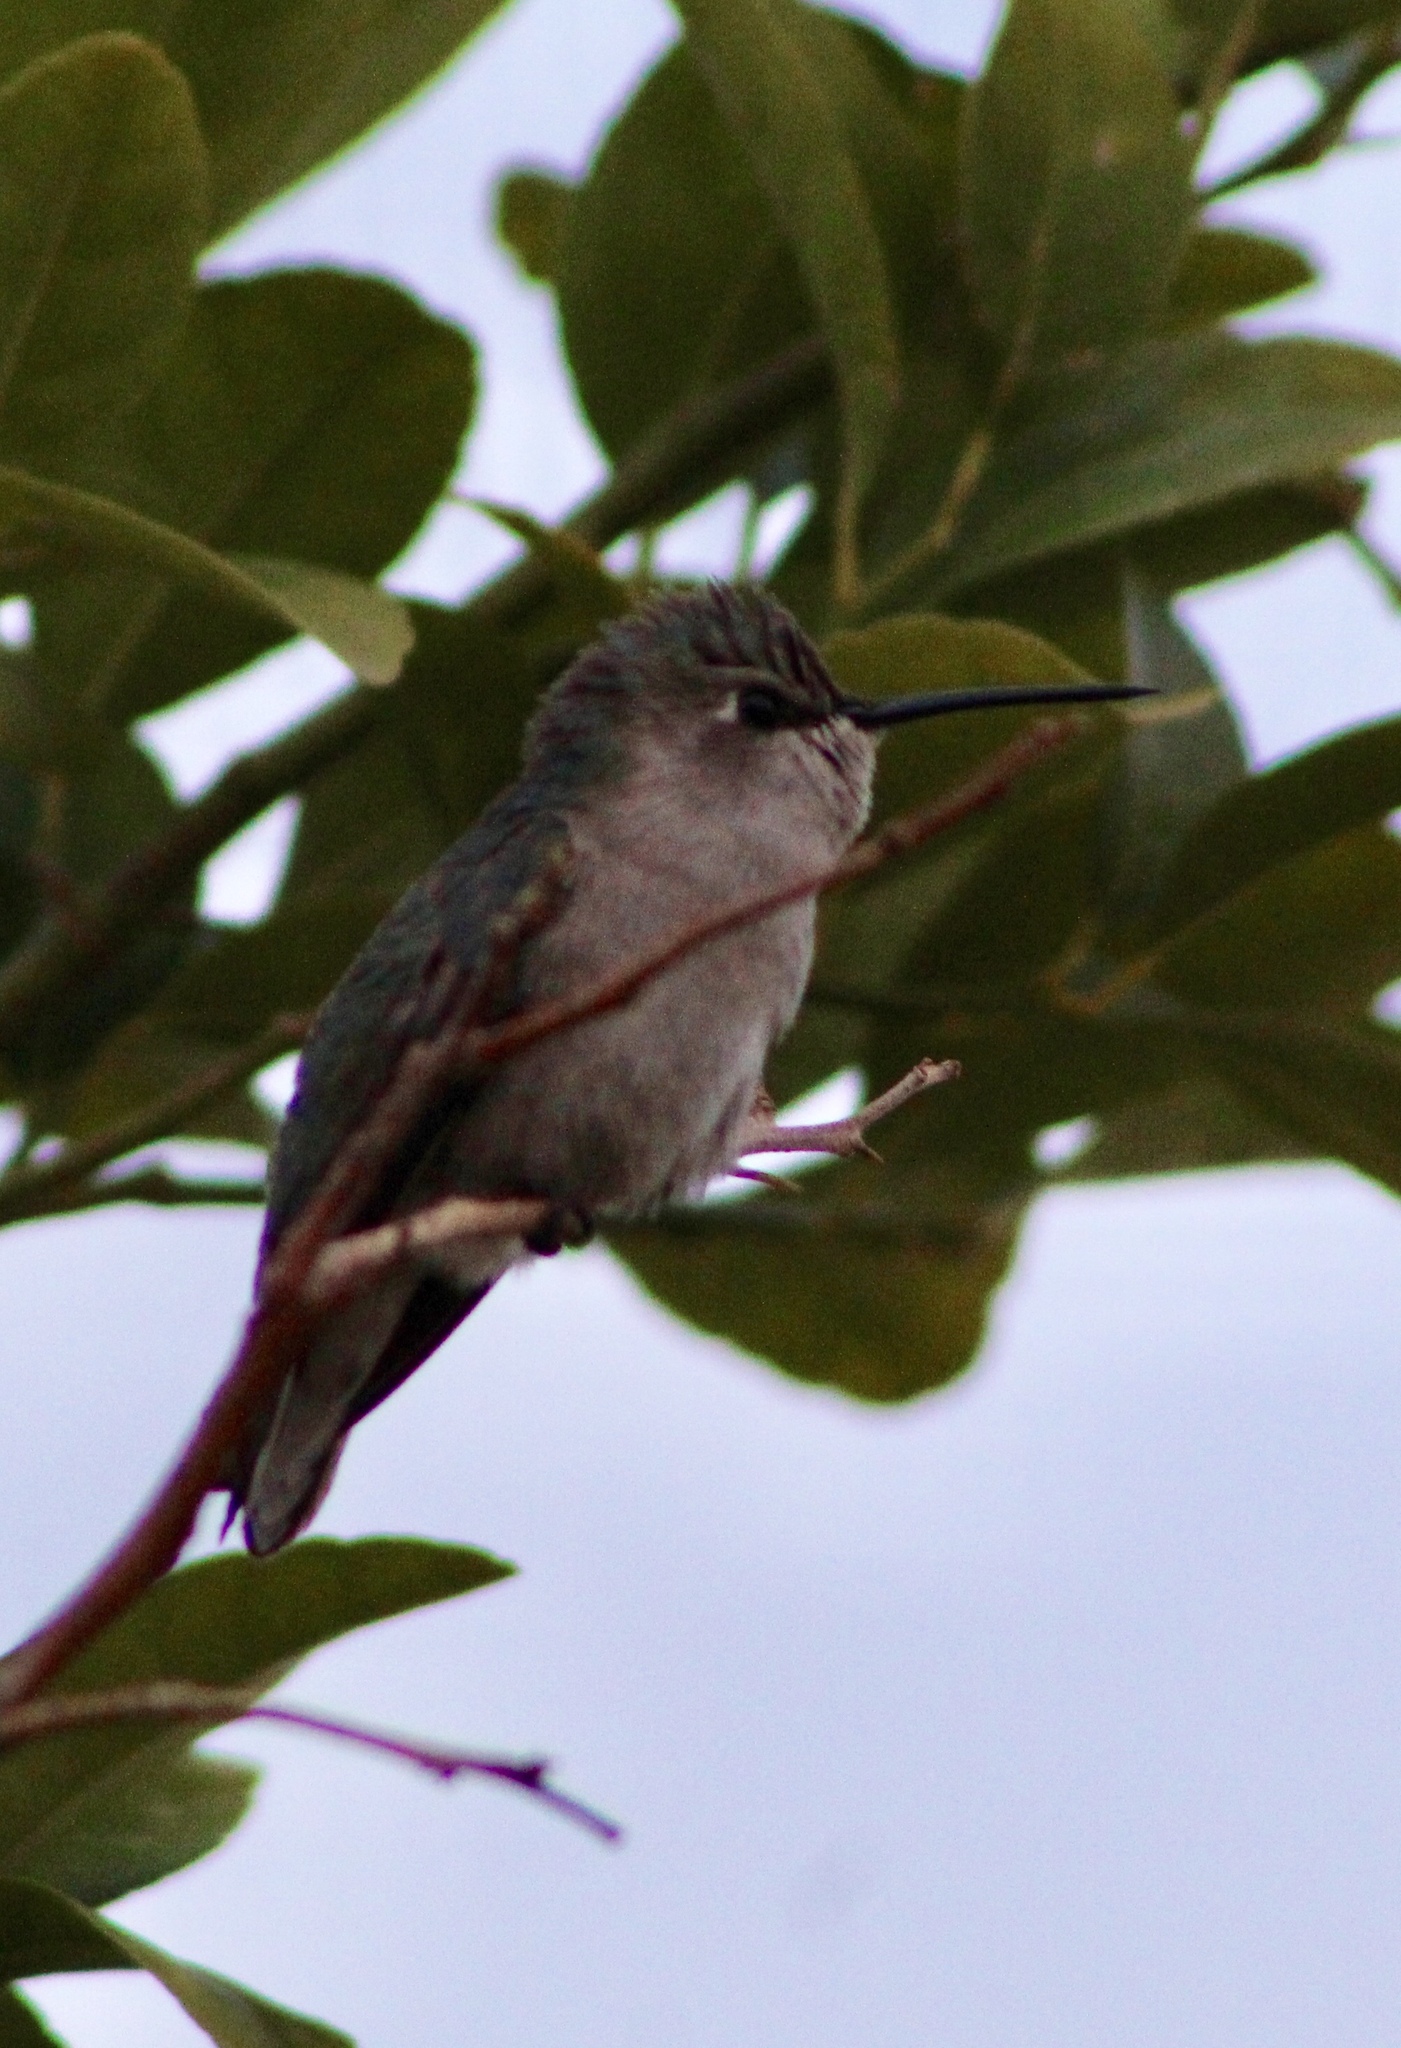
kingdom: Animalia
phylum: Chordata
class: Aves
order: Apodiformes
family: Trochilidae
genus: Calypte
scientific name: Calypte costae
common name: Costa's hummingbird
